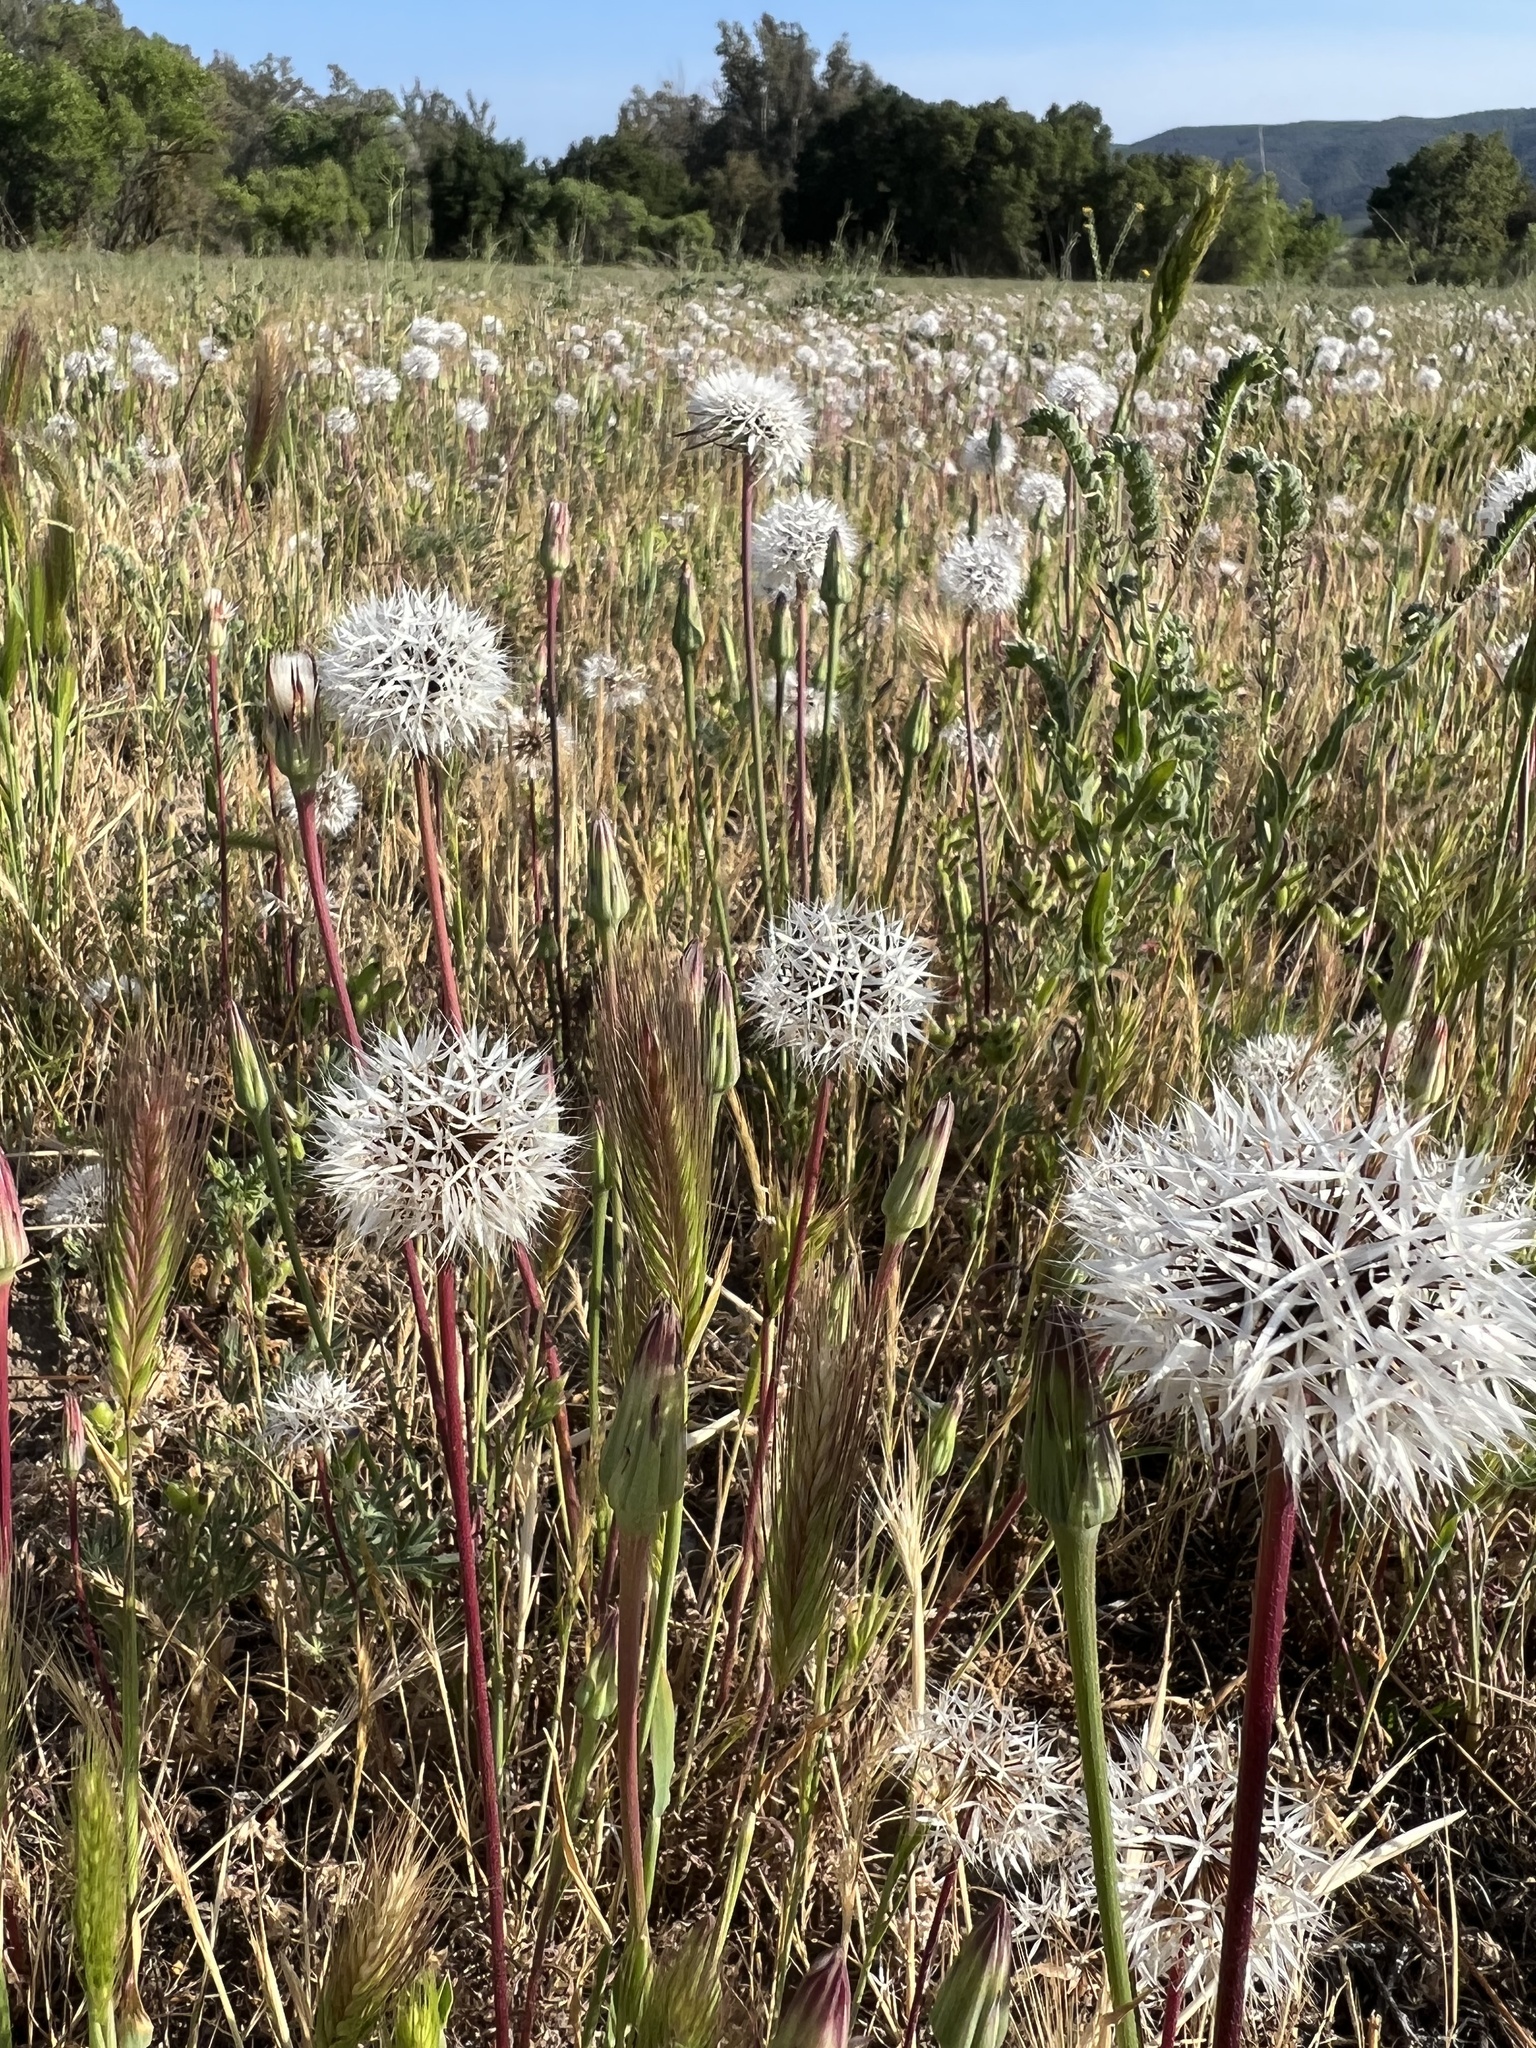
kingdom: Plantae
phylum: Tracheophyta
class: Magnoliopsida
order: Asterales
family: Asteraceae
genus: Microseris
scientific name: Microseris lindleyi
